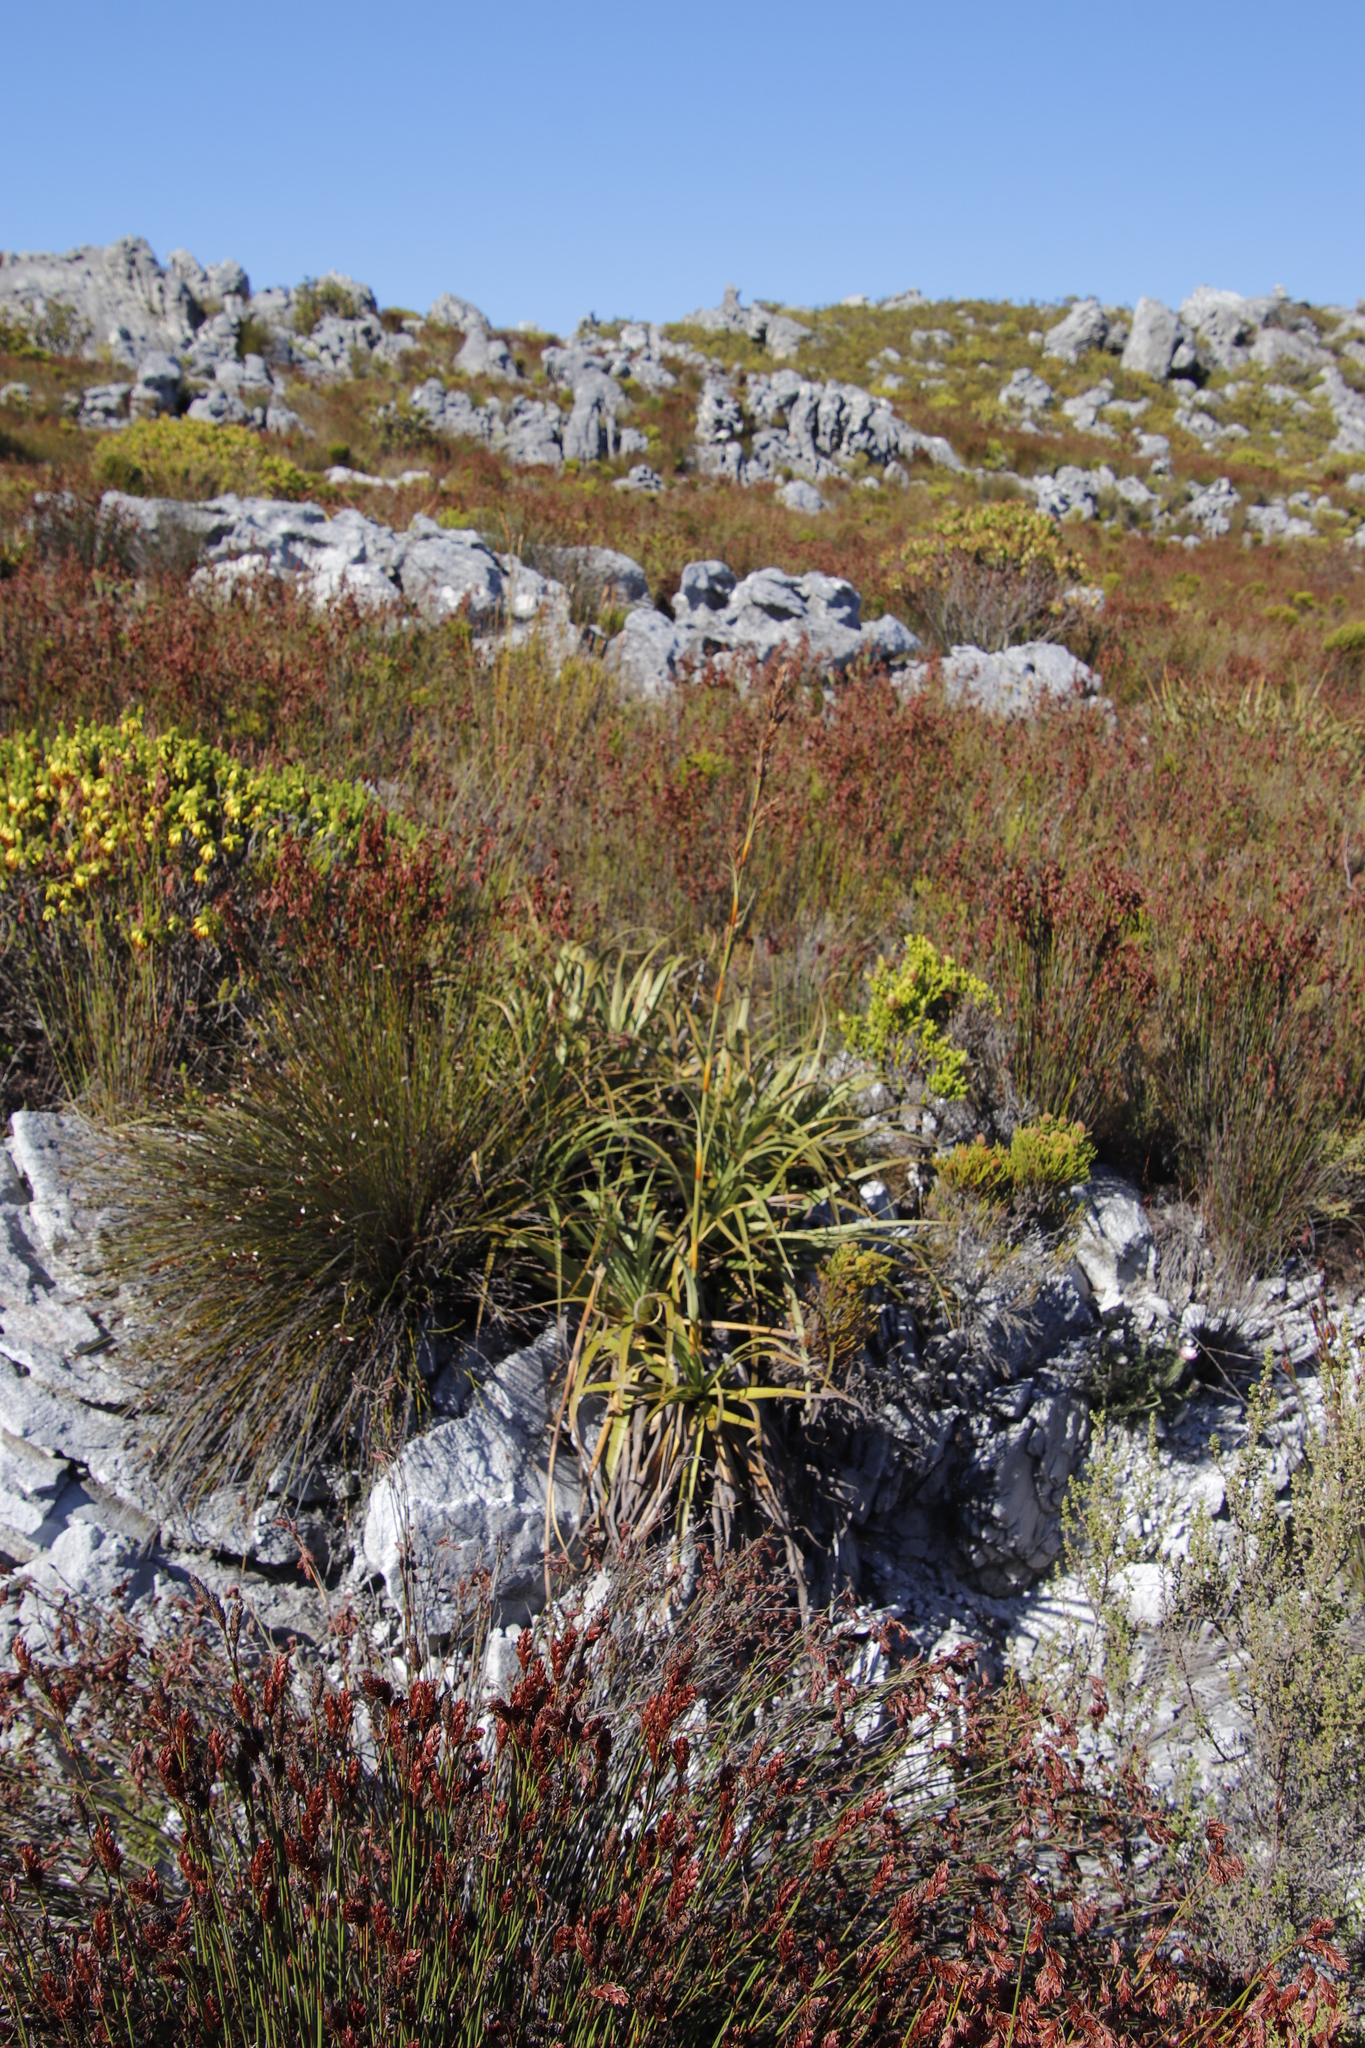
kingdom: Plantae
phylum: Tracheophyta
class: Liliopsida
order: Poales
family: Cyperaceae
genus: Tetraria
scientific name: Tetraria thermalis
